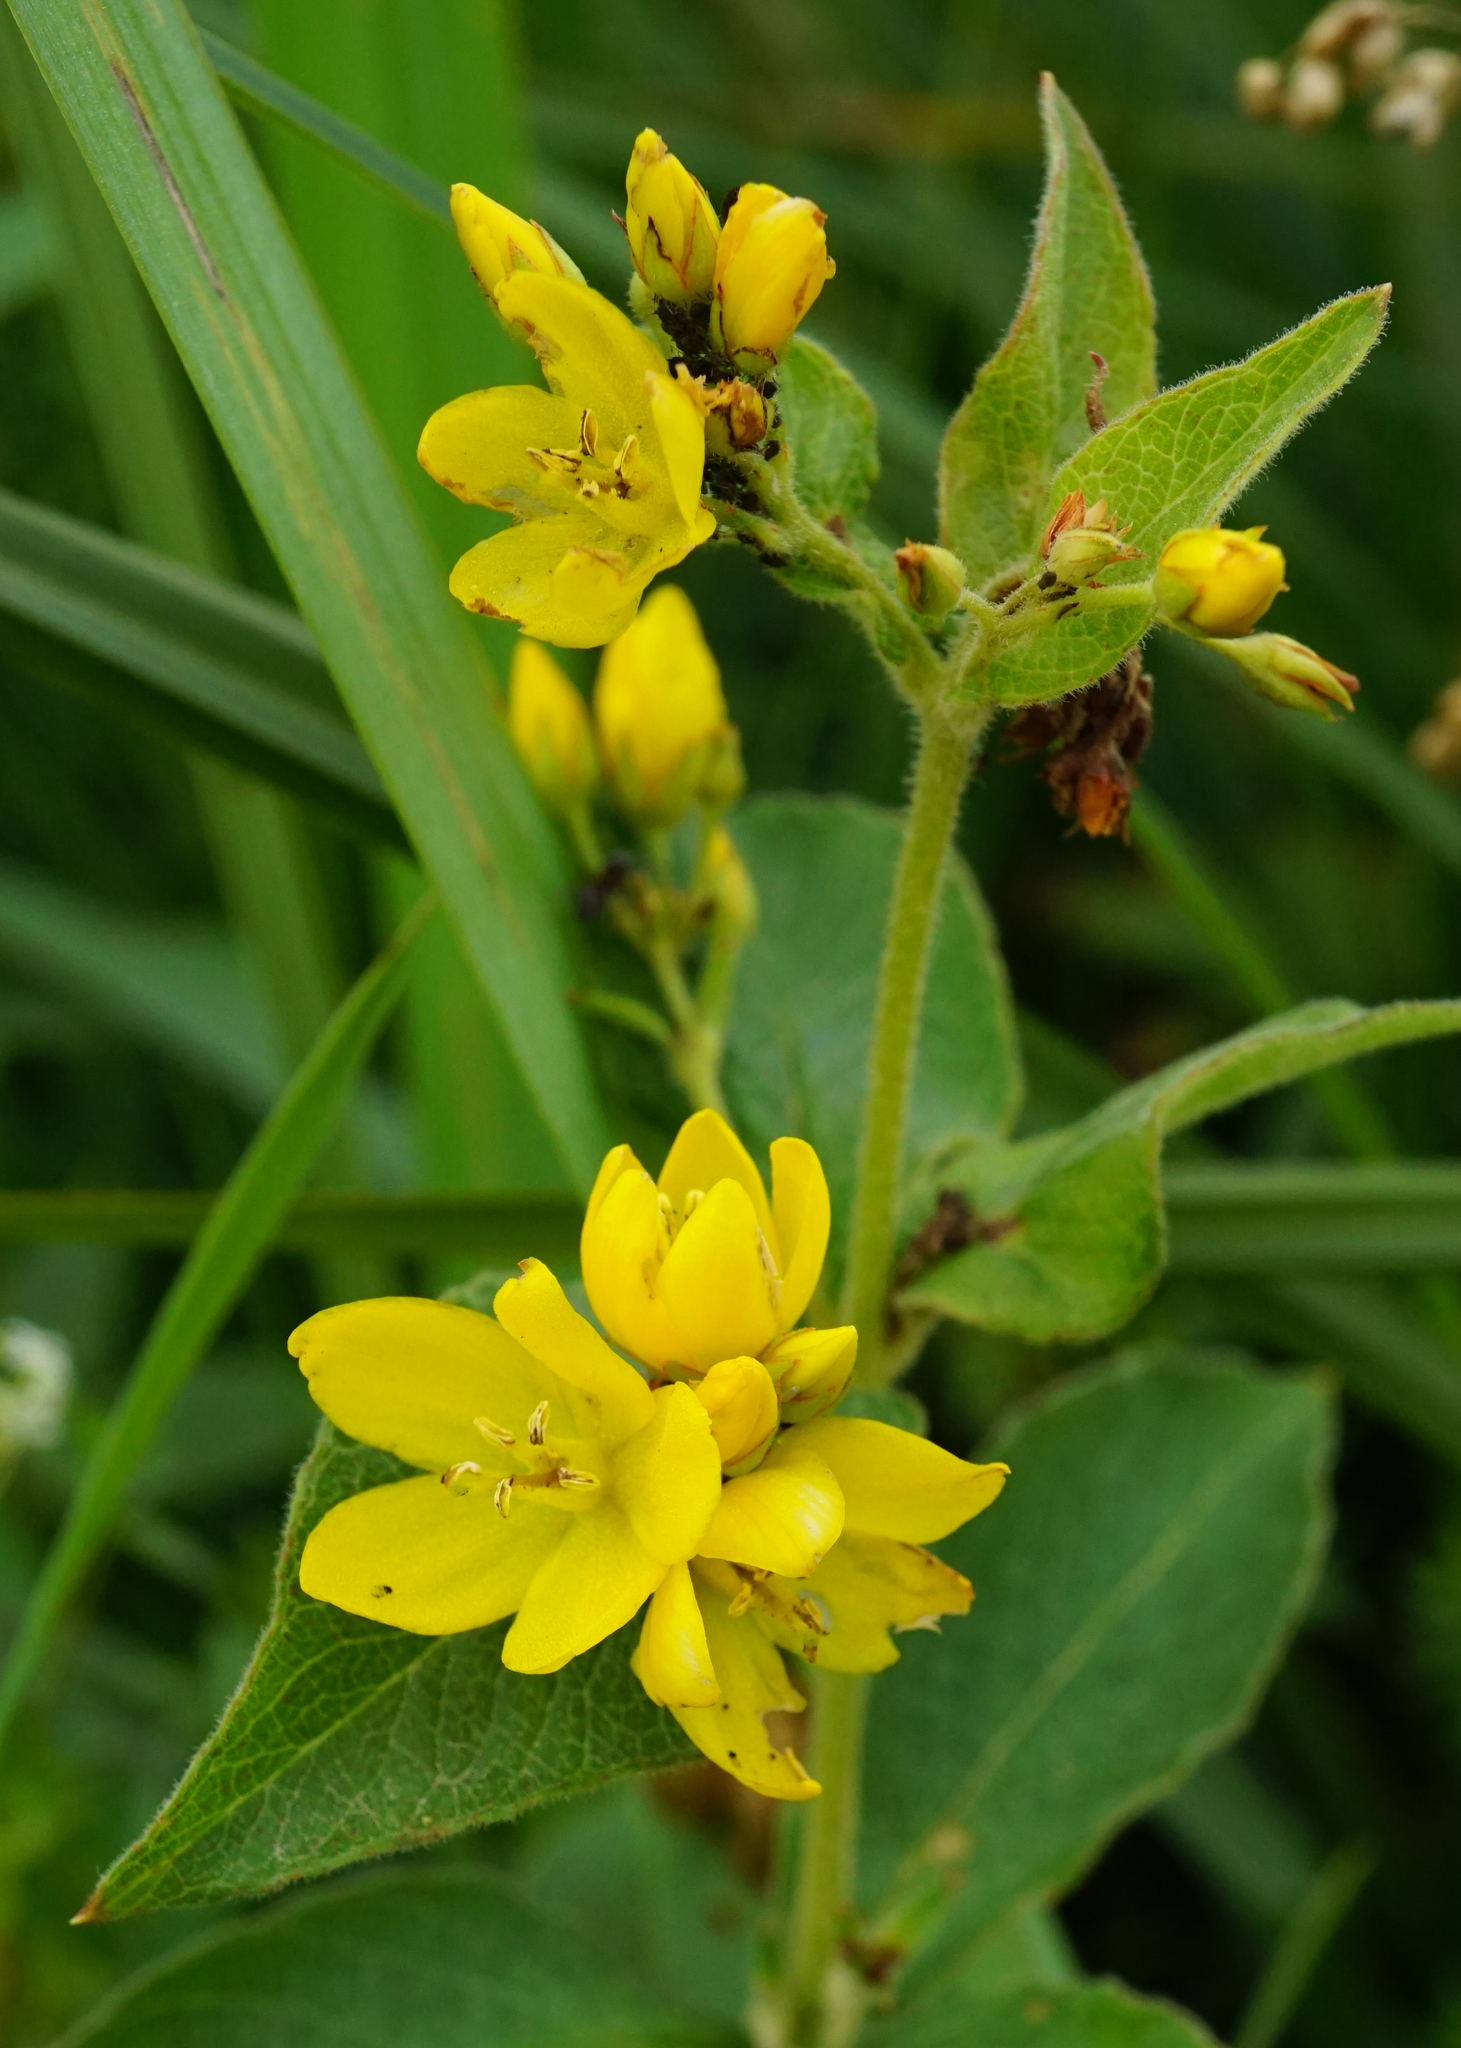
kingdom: Plantae
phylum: Tracheophyta
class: Magnoliopsida
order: Ericales
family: Primulaceae
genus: Lysimachia
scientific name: Lysimachia vulgaris
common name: Yellow loosestrife
